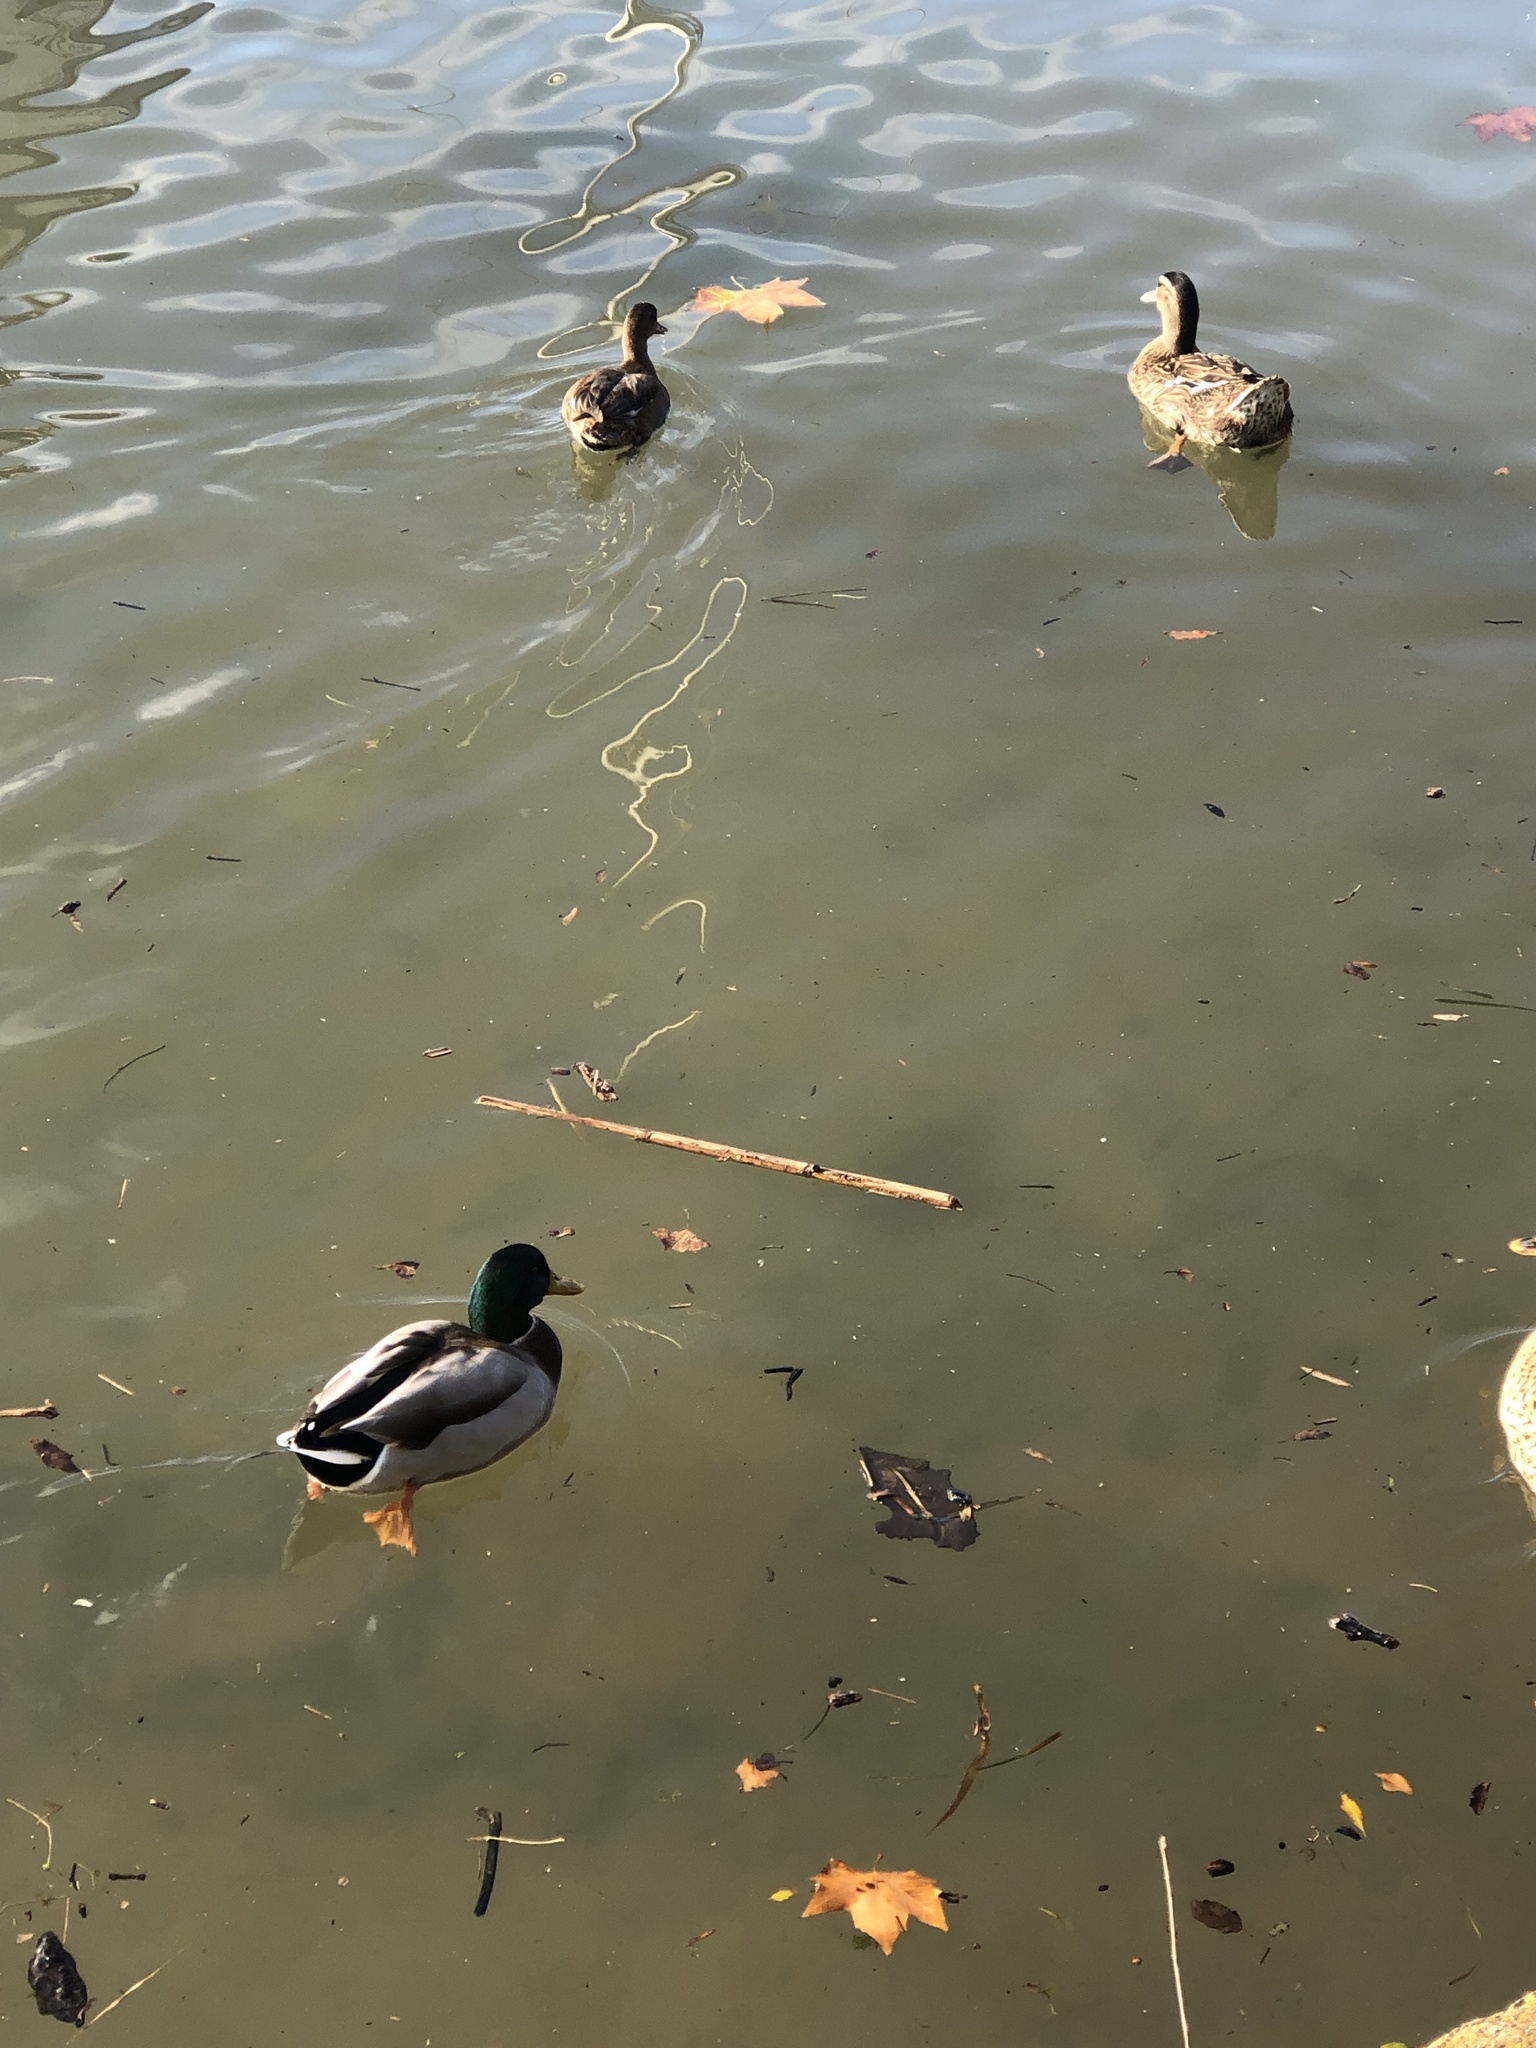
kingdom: Animalia
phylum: Chordata
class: Aves
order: Anseriformes
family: Anatidae
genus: Anas
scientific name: Anas platyrhynchos
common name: Mallard
